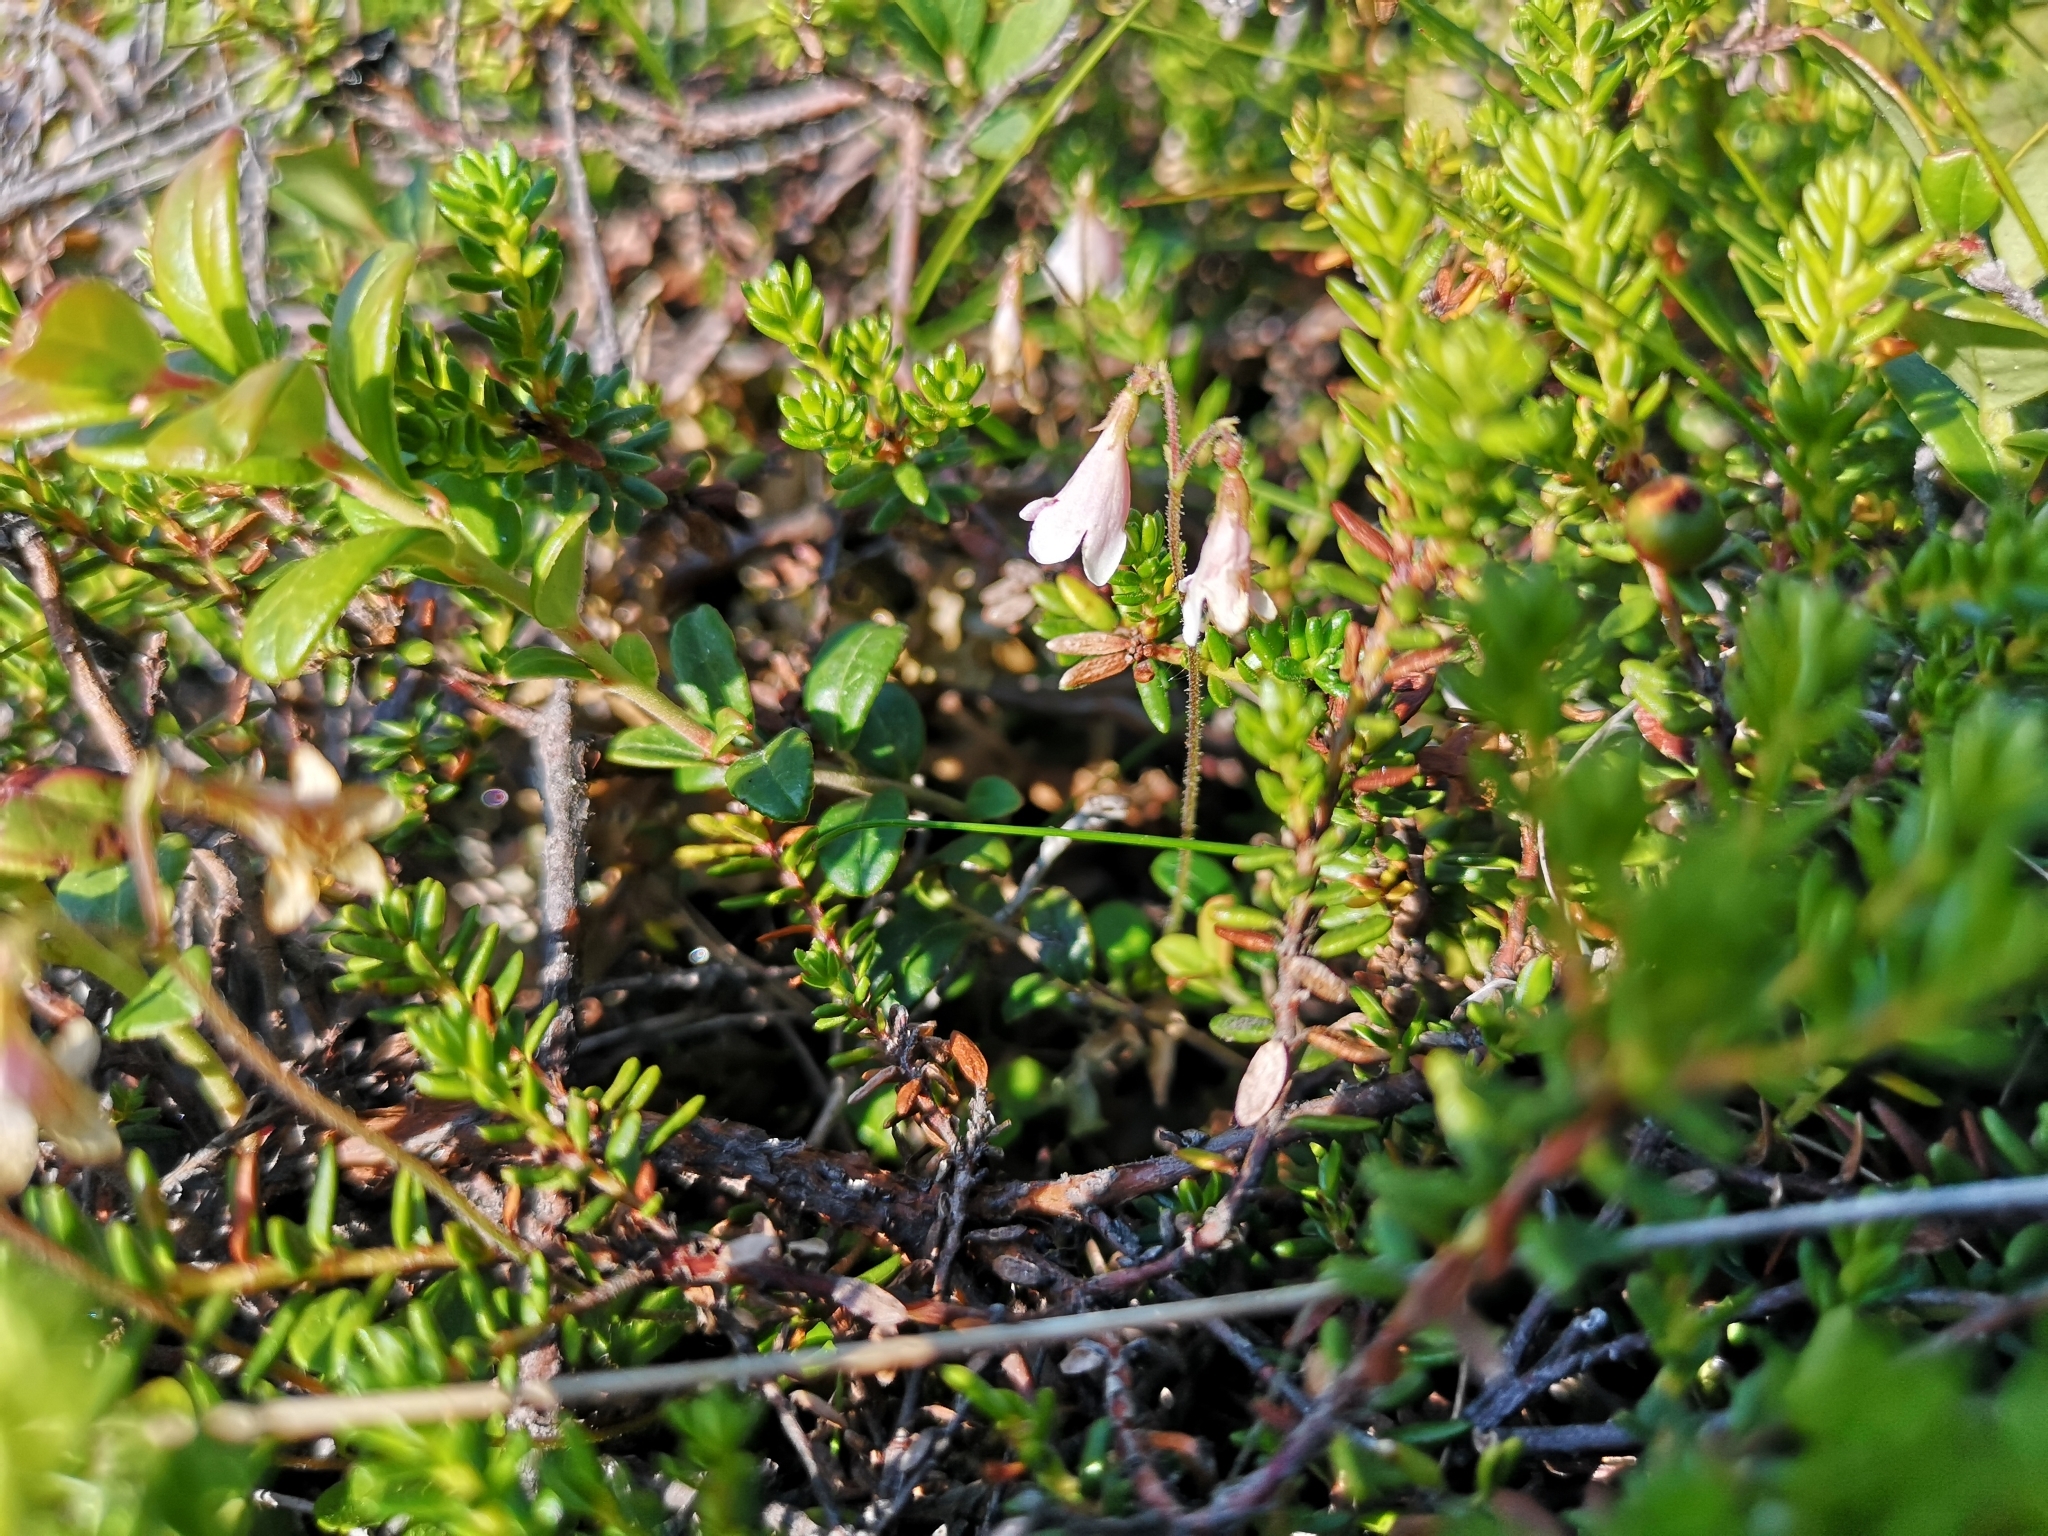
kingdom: Plantae
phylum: Tracheophyta
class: Magnoliopsida
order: Dipsacales
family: Caprifoliaceae
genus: Linnaea
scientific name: Linnaea borealis
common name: Twinflower
